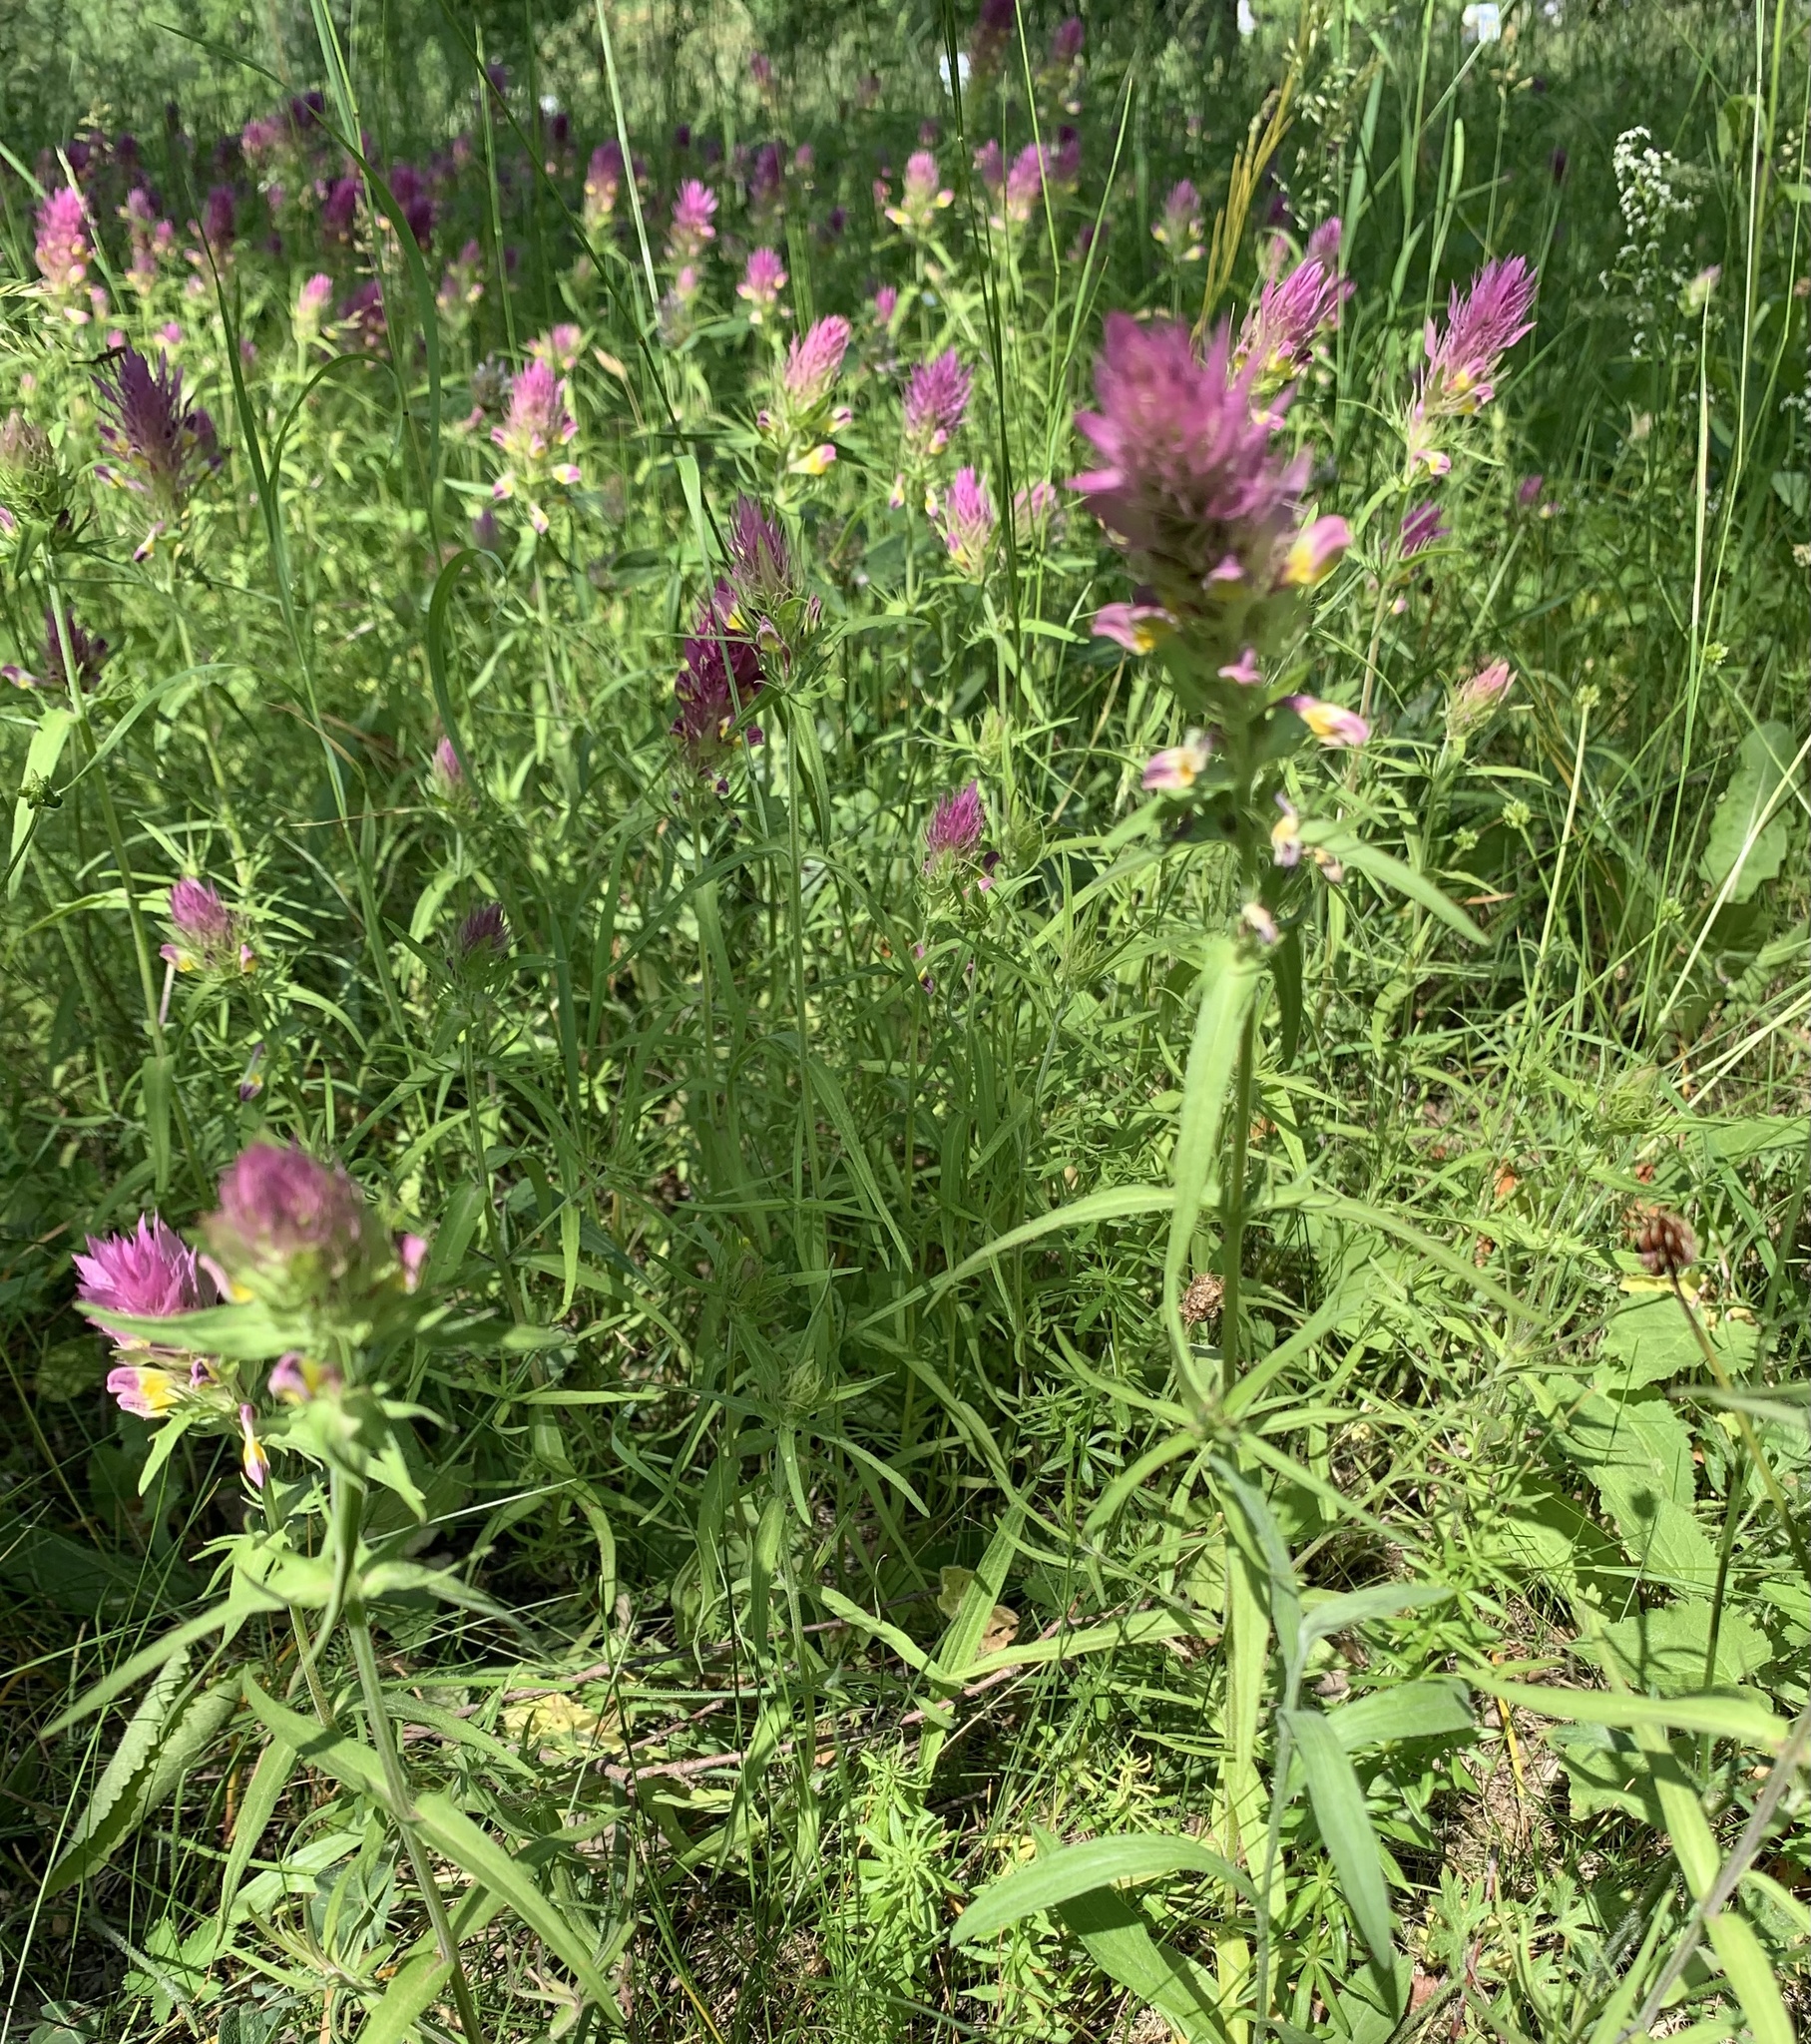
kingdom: Plantae
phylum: Tracheophyta
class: Magnoliopsida
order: Lamiales
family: Orobanchaceae
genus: Melampyrum
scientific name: Melampyrum arvense
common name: Field cow-wheat
